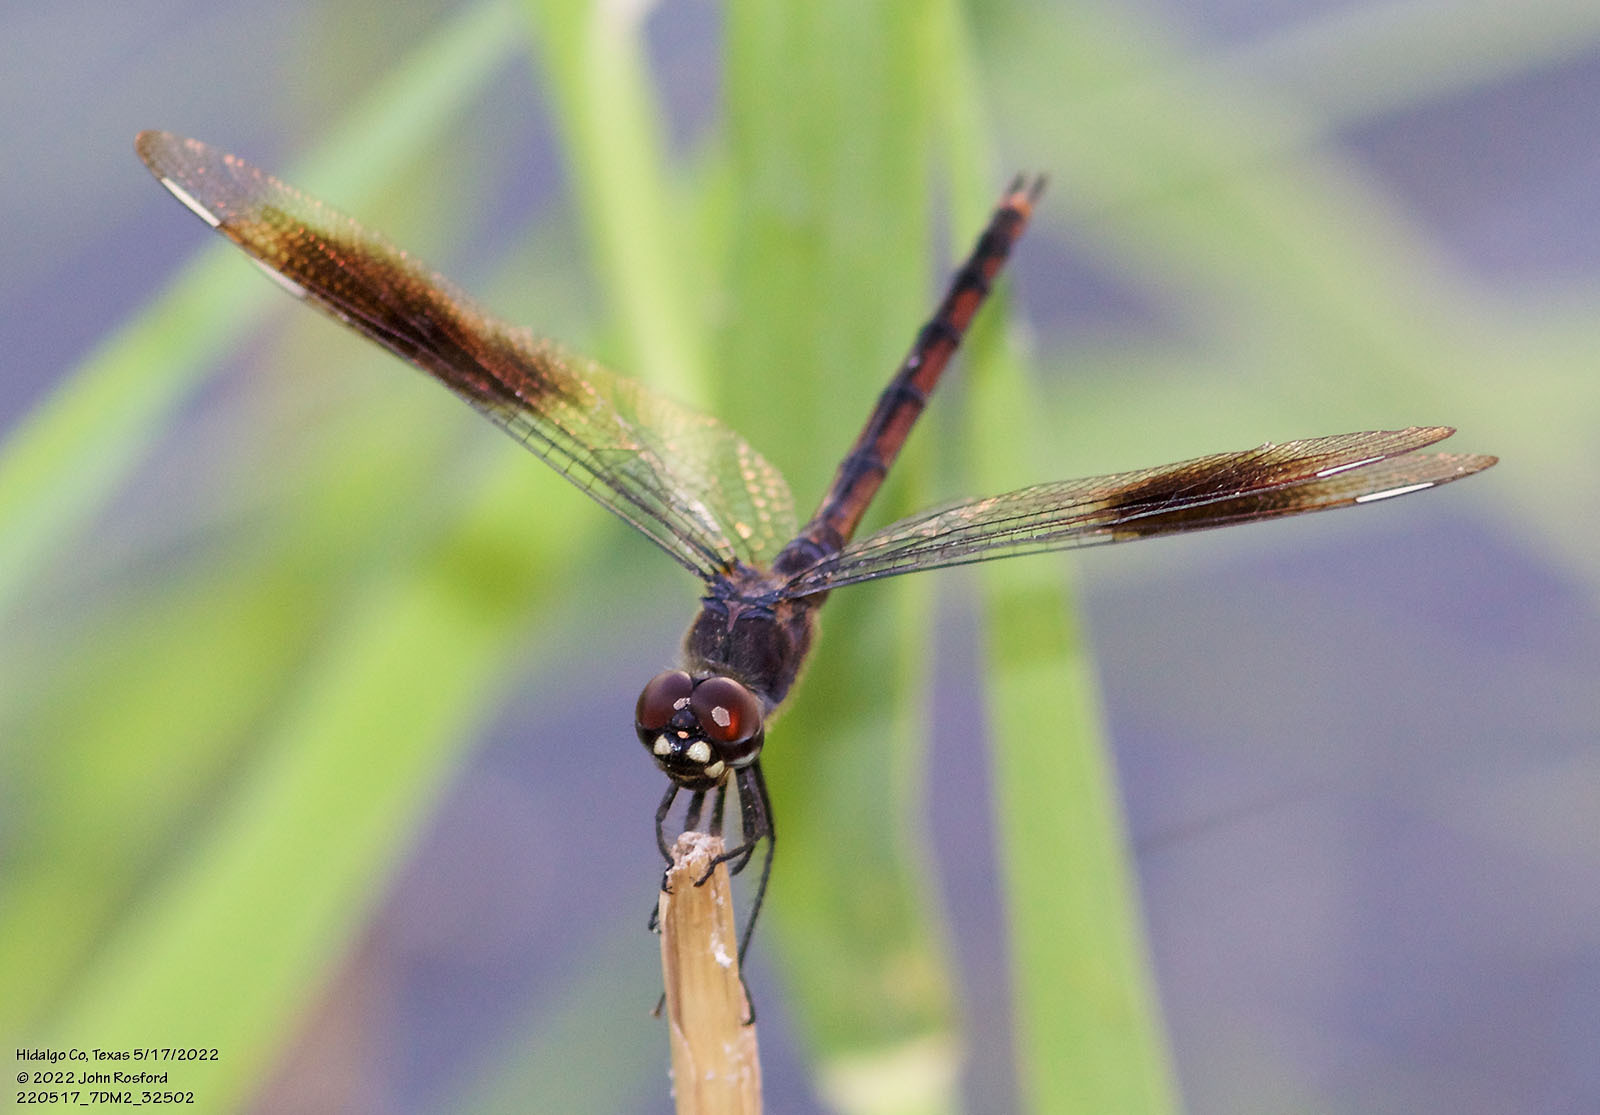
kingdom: Animalia
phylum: Arthropoda
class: Insecta
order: Odonata
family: Libellulidae
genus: Brachymesia
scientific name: Brachymesia gravida
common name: Four-spotted pennant
